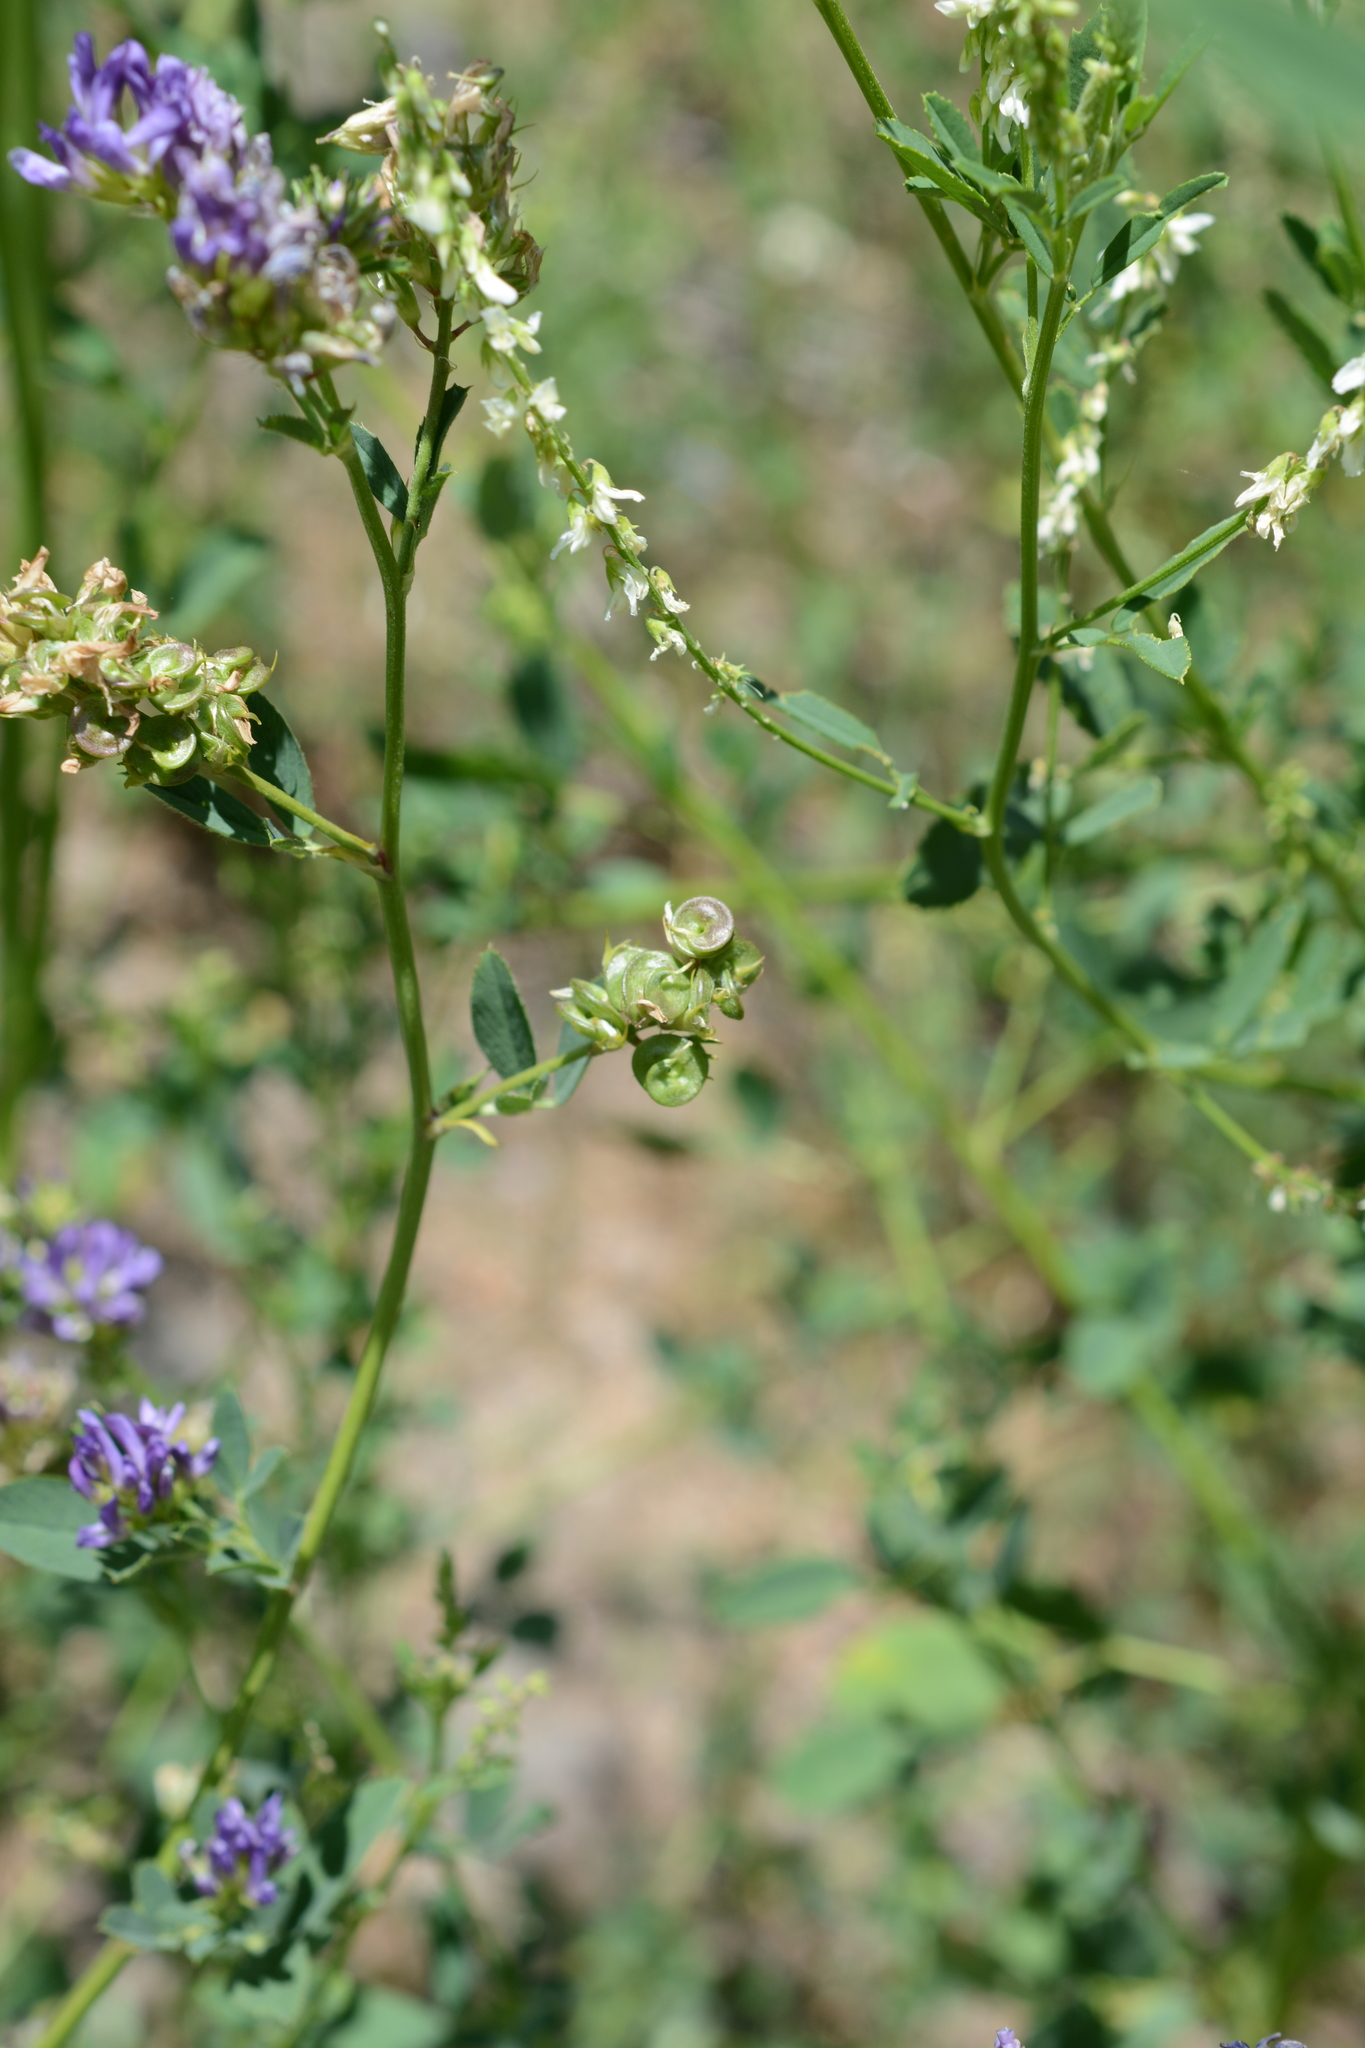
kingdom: Plantae
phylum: Tracheophyta
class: Magnoliopsida
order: Fabales
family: Fabaceae
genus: Medicago
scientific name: Medicago sativa
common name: Alfalfa
